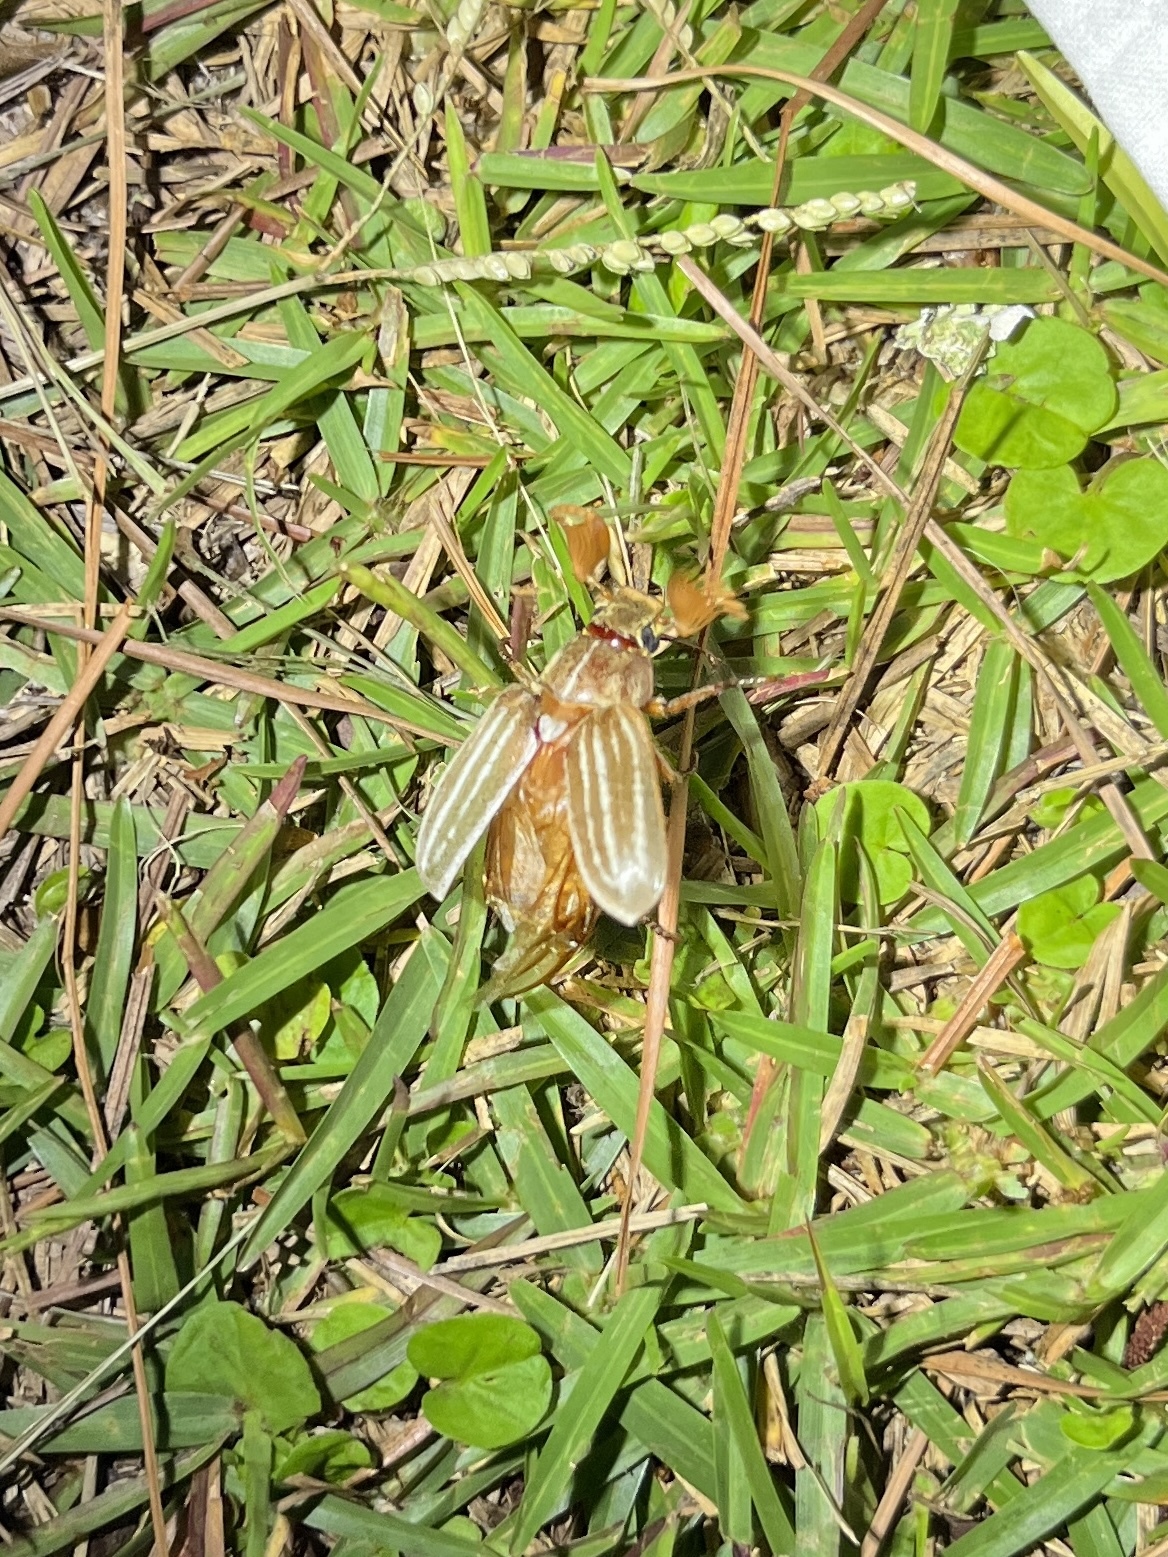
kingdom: Animalia
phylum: Arthropoda
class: Insecta
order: Coleoptera
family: Scarabaeidae
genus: Polyphylla
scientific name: Polyphylla occidentalis
